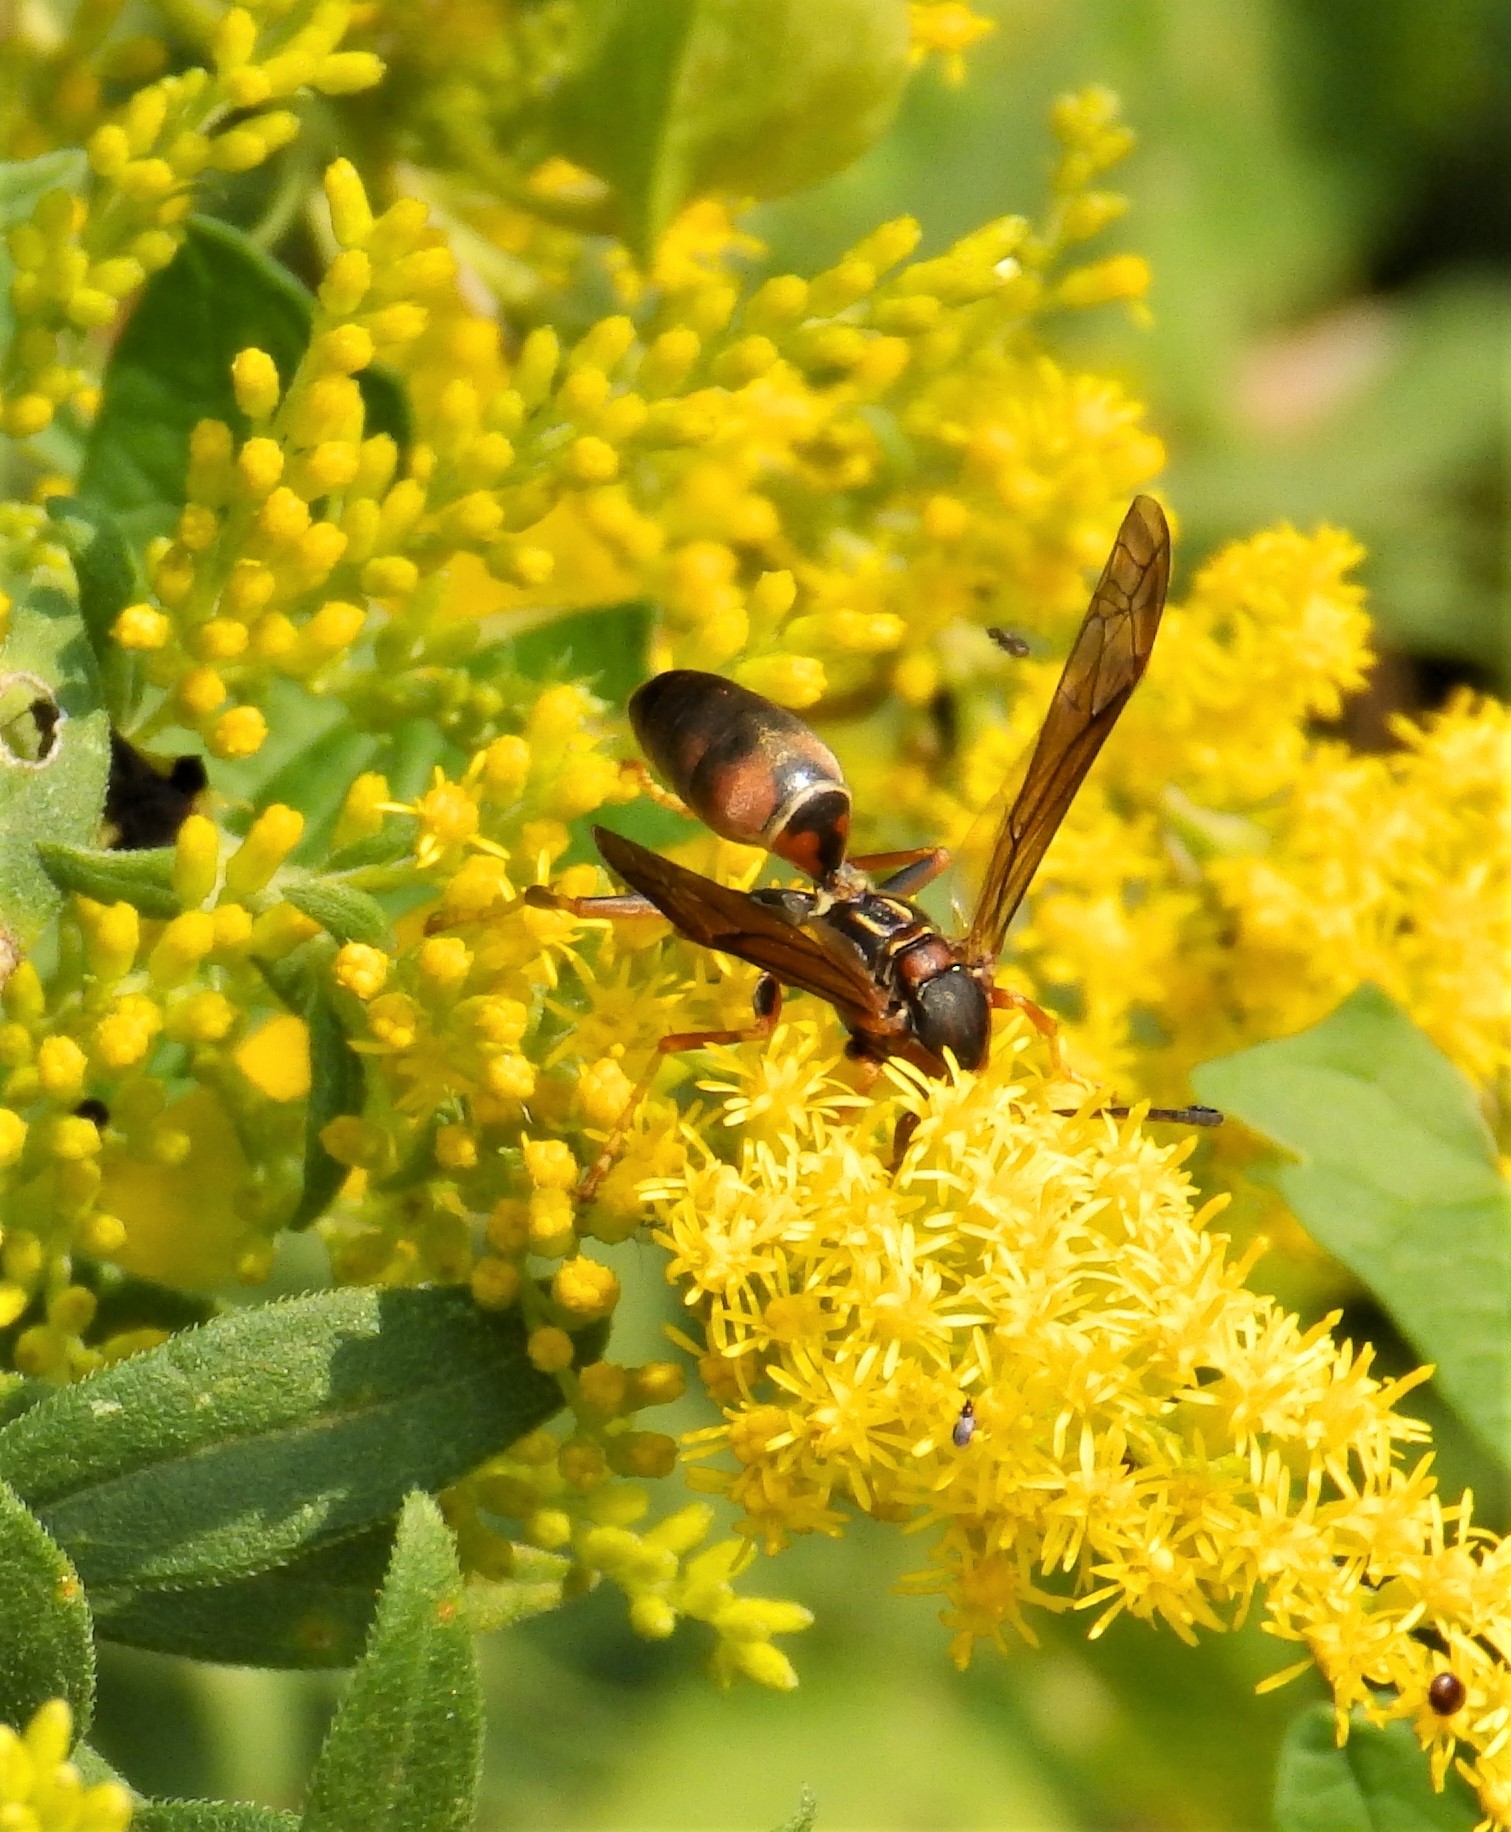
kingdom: Animalia
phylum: Arthropoda
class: Insecta
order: Hymenoptera
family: Eumenidae
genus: Polistes
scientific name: Polistes fuscatus
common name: Dark paper wasp
